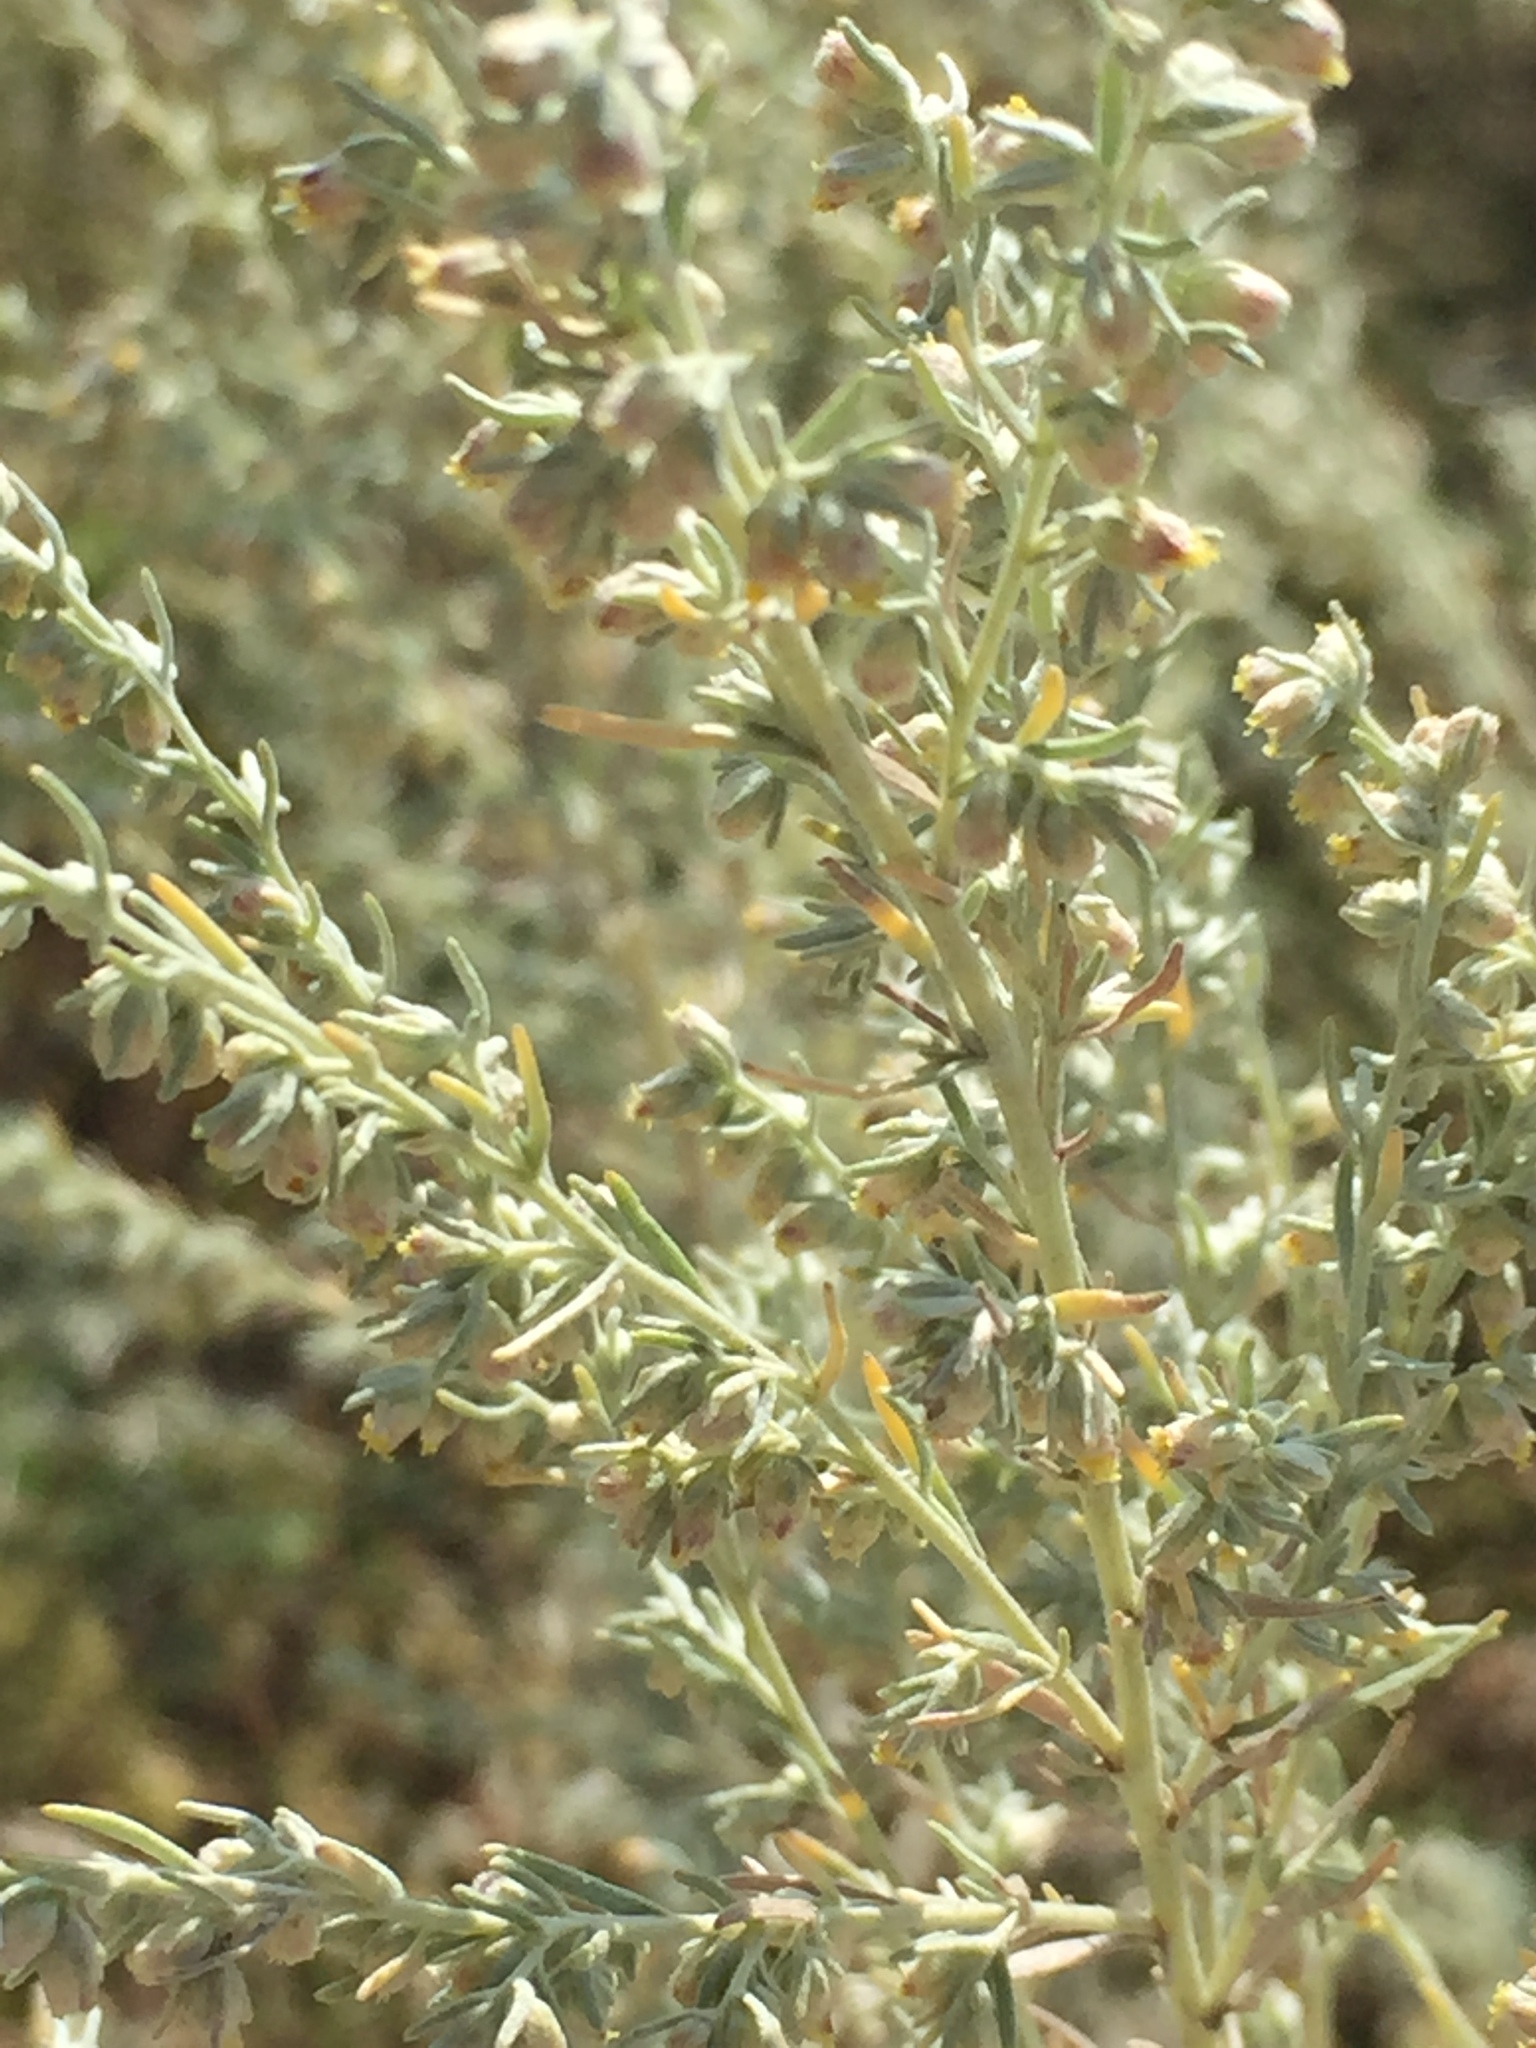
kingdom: Plantae
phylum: Tracheophyta
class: Magnoliopsida
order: Asterales
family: Asteraceae
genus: Artemisia
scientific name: Artemisia austriaca
